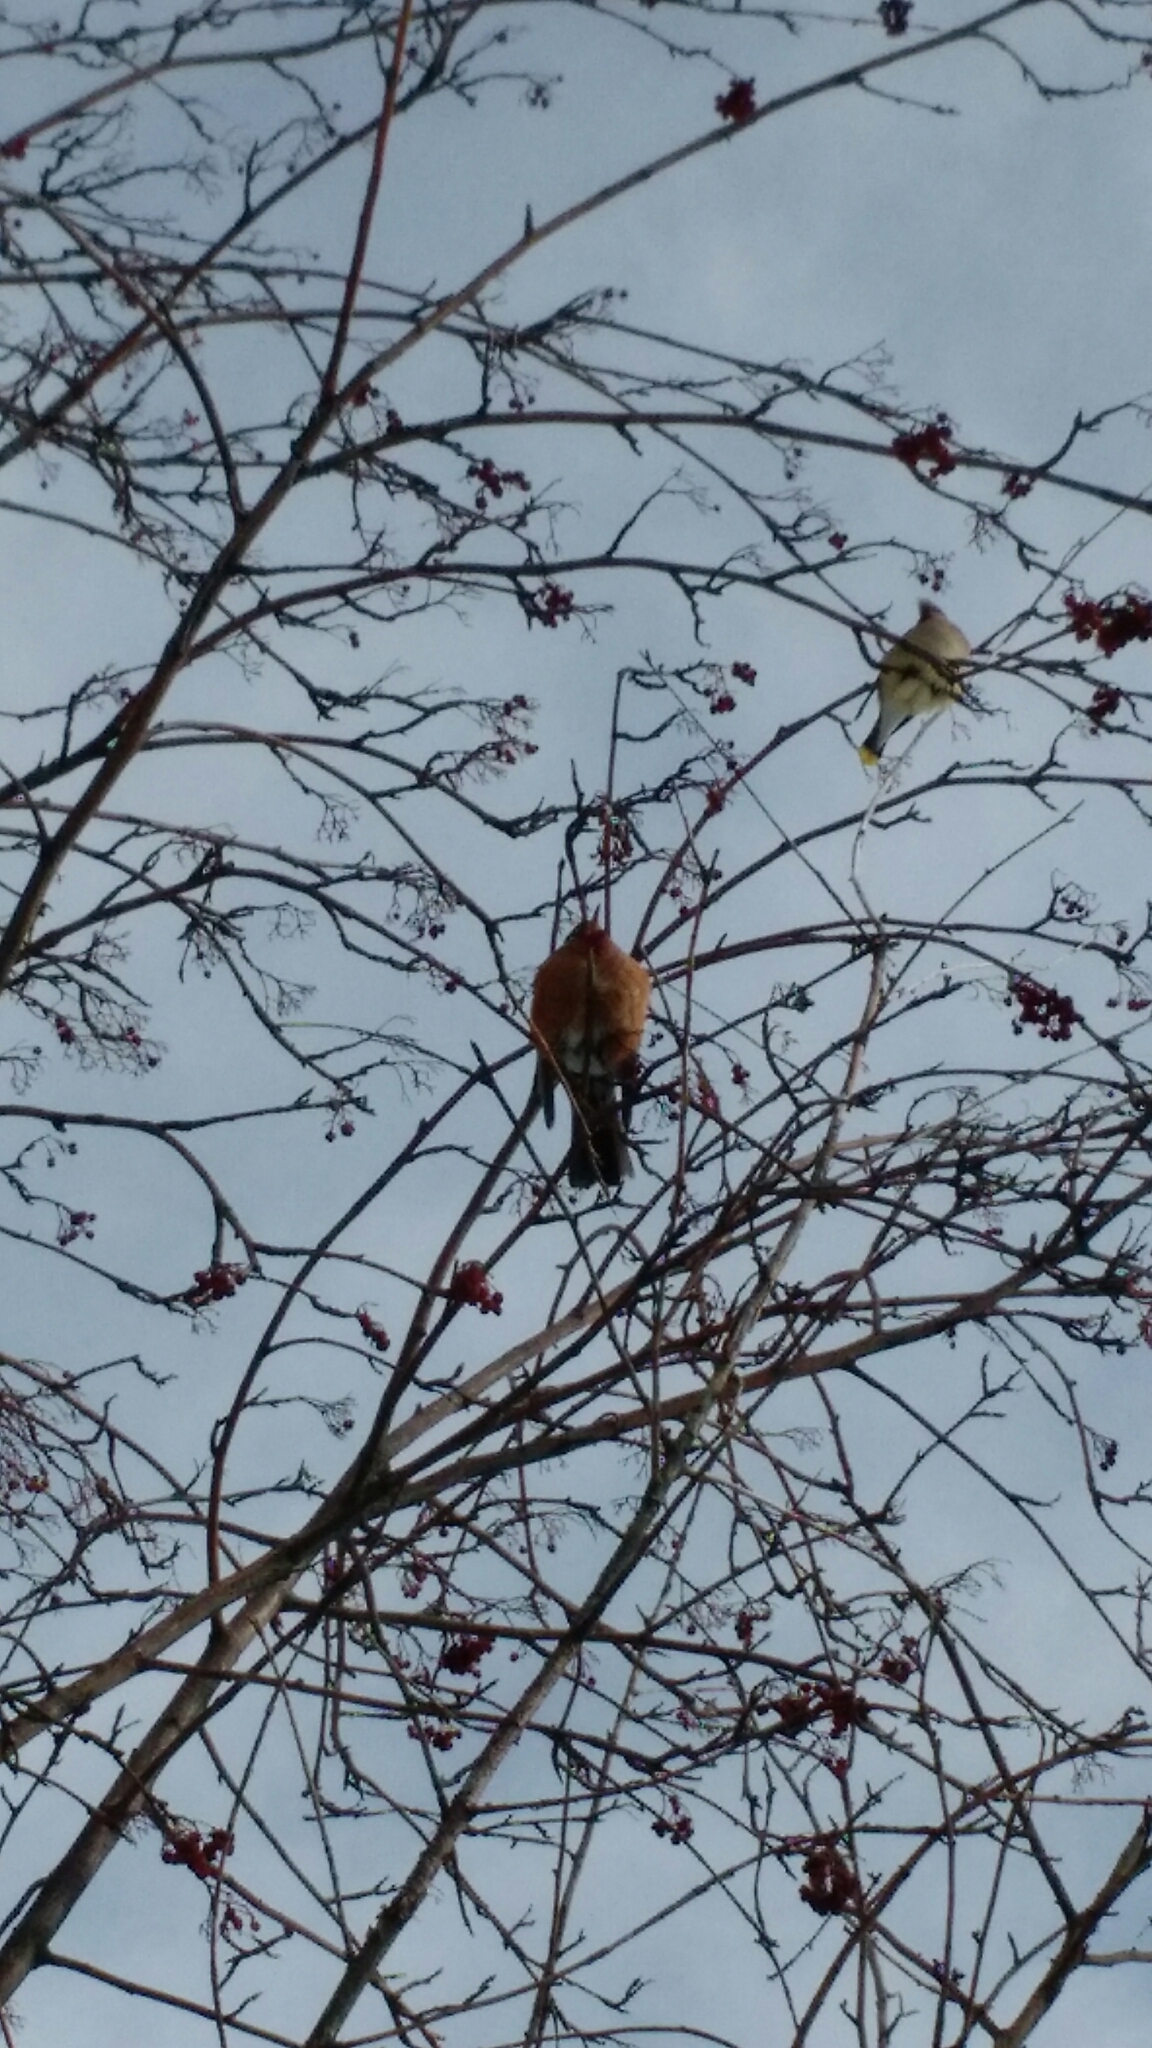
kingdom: Animalia
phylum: Chordata
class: Aves
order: Passeriformes
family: Bombycillidae
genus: Bombycilla
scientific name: Bombycilla cedrorum
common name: Cedar waxwing
